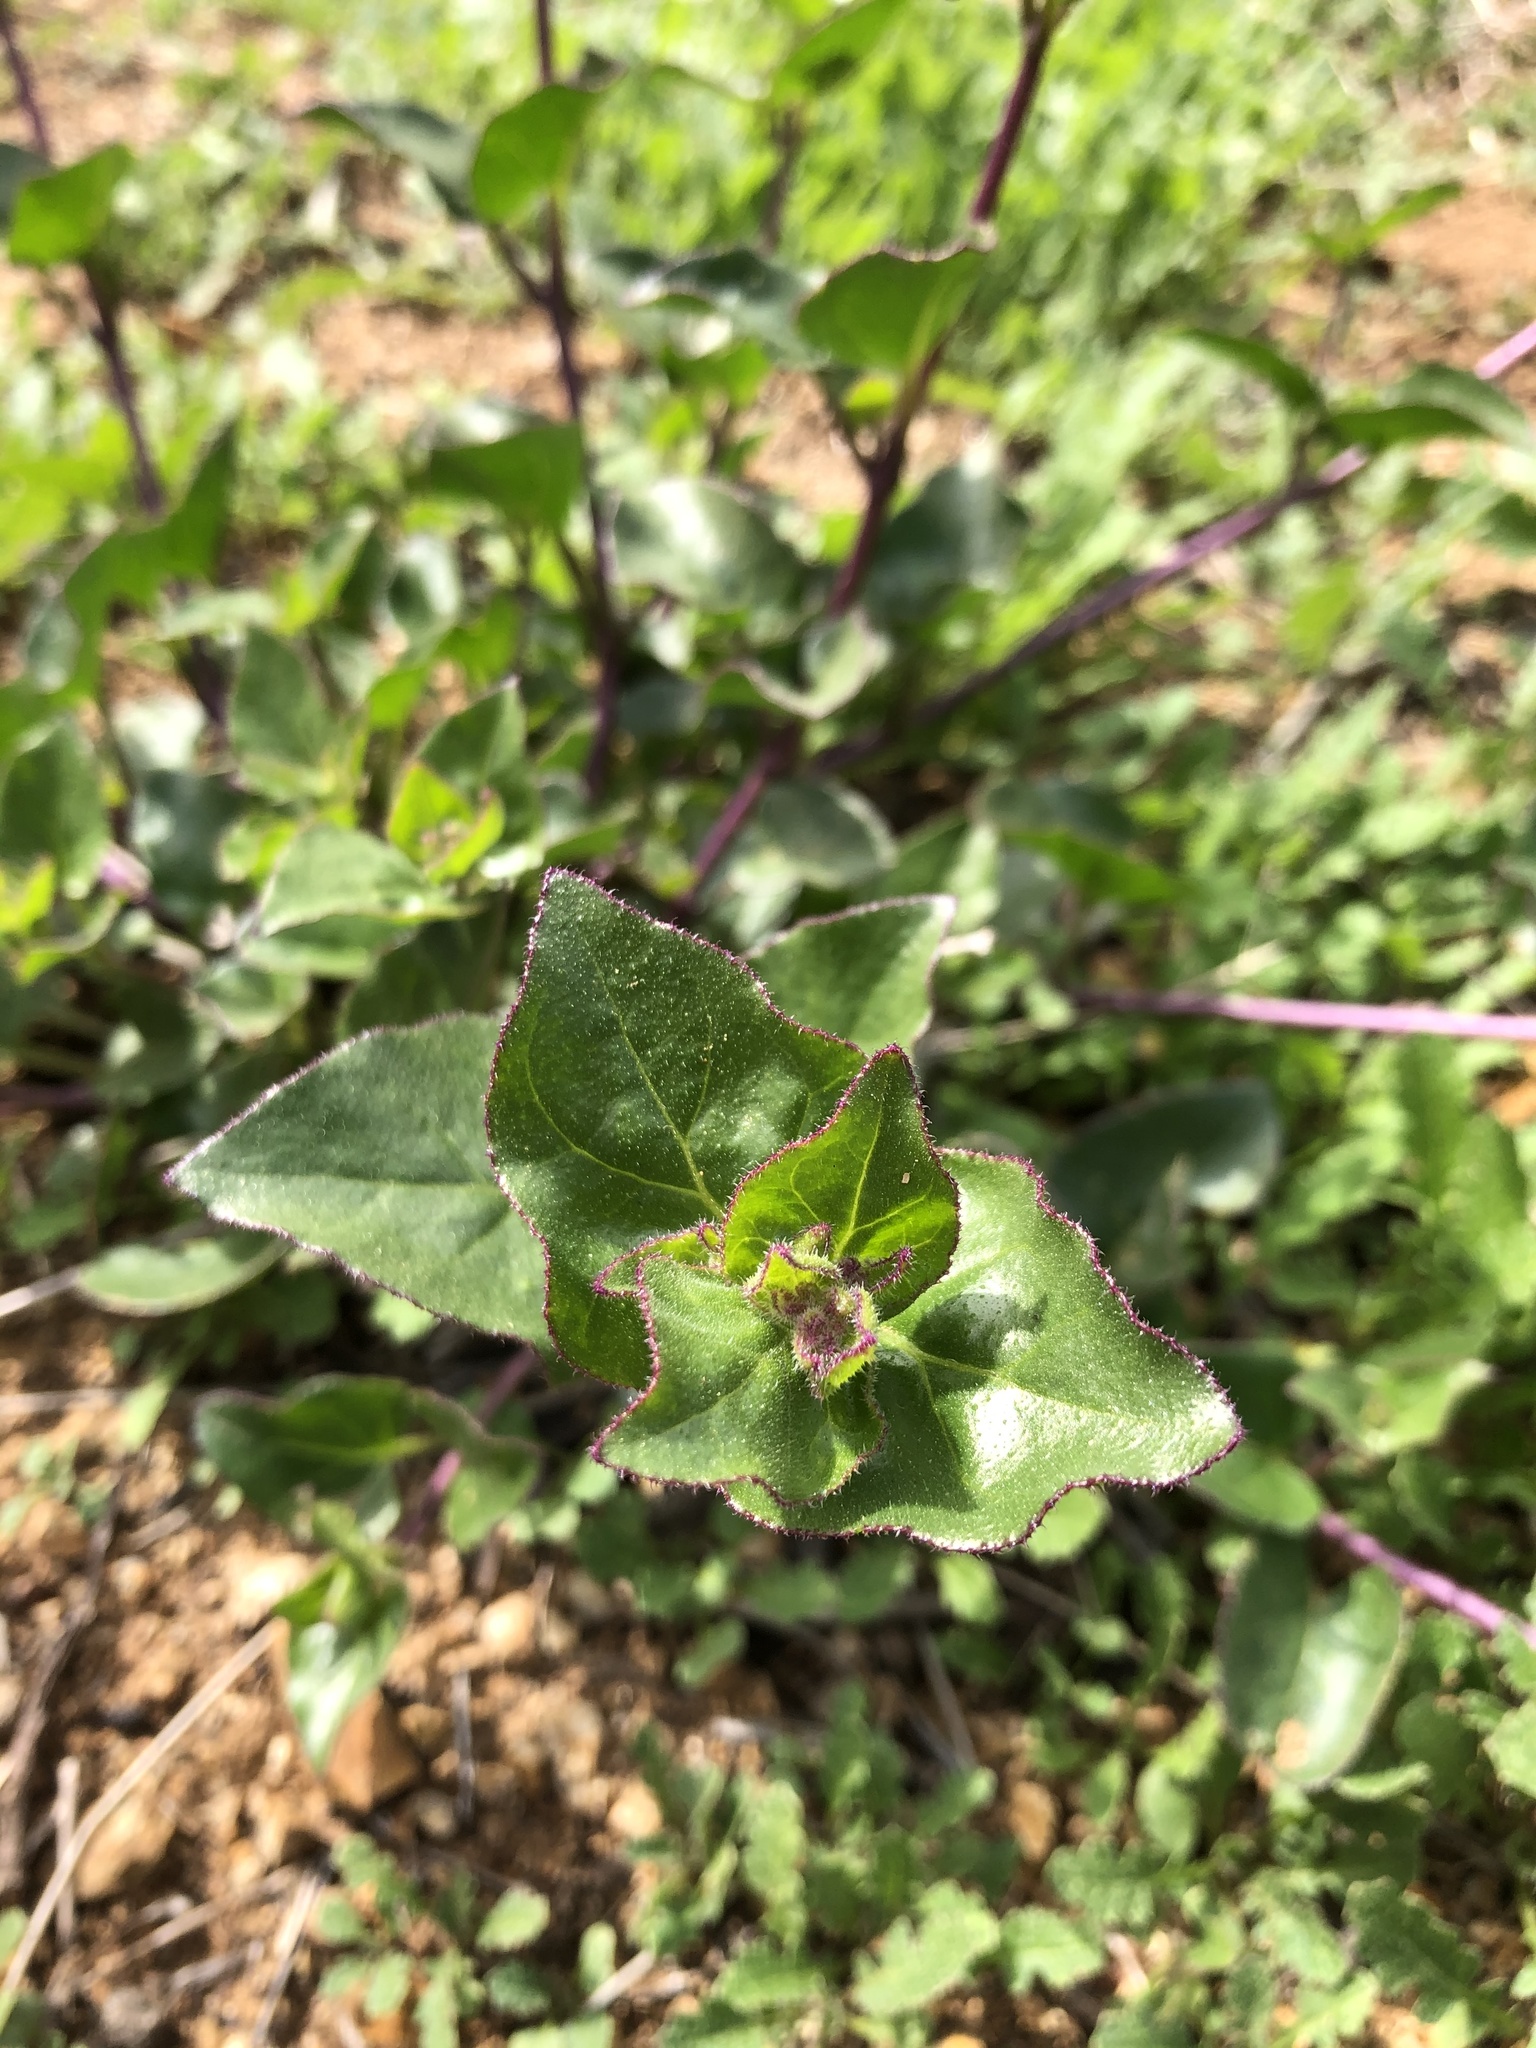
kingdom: Plantae
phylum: Tracheophyta
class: Magnoliopsida
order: Caryophyllales
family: Nyctaginaceae
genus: Mirabilis
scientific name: Mirabilis laevis
